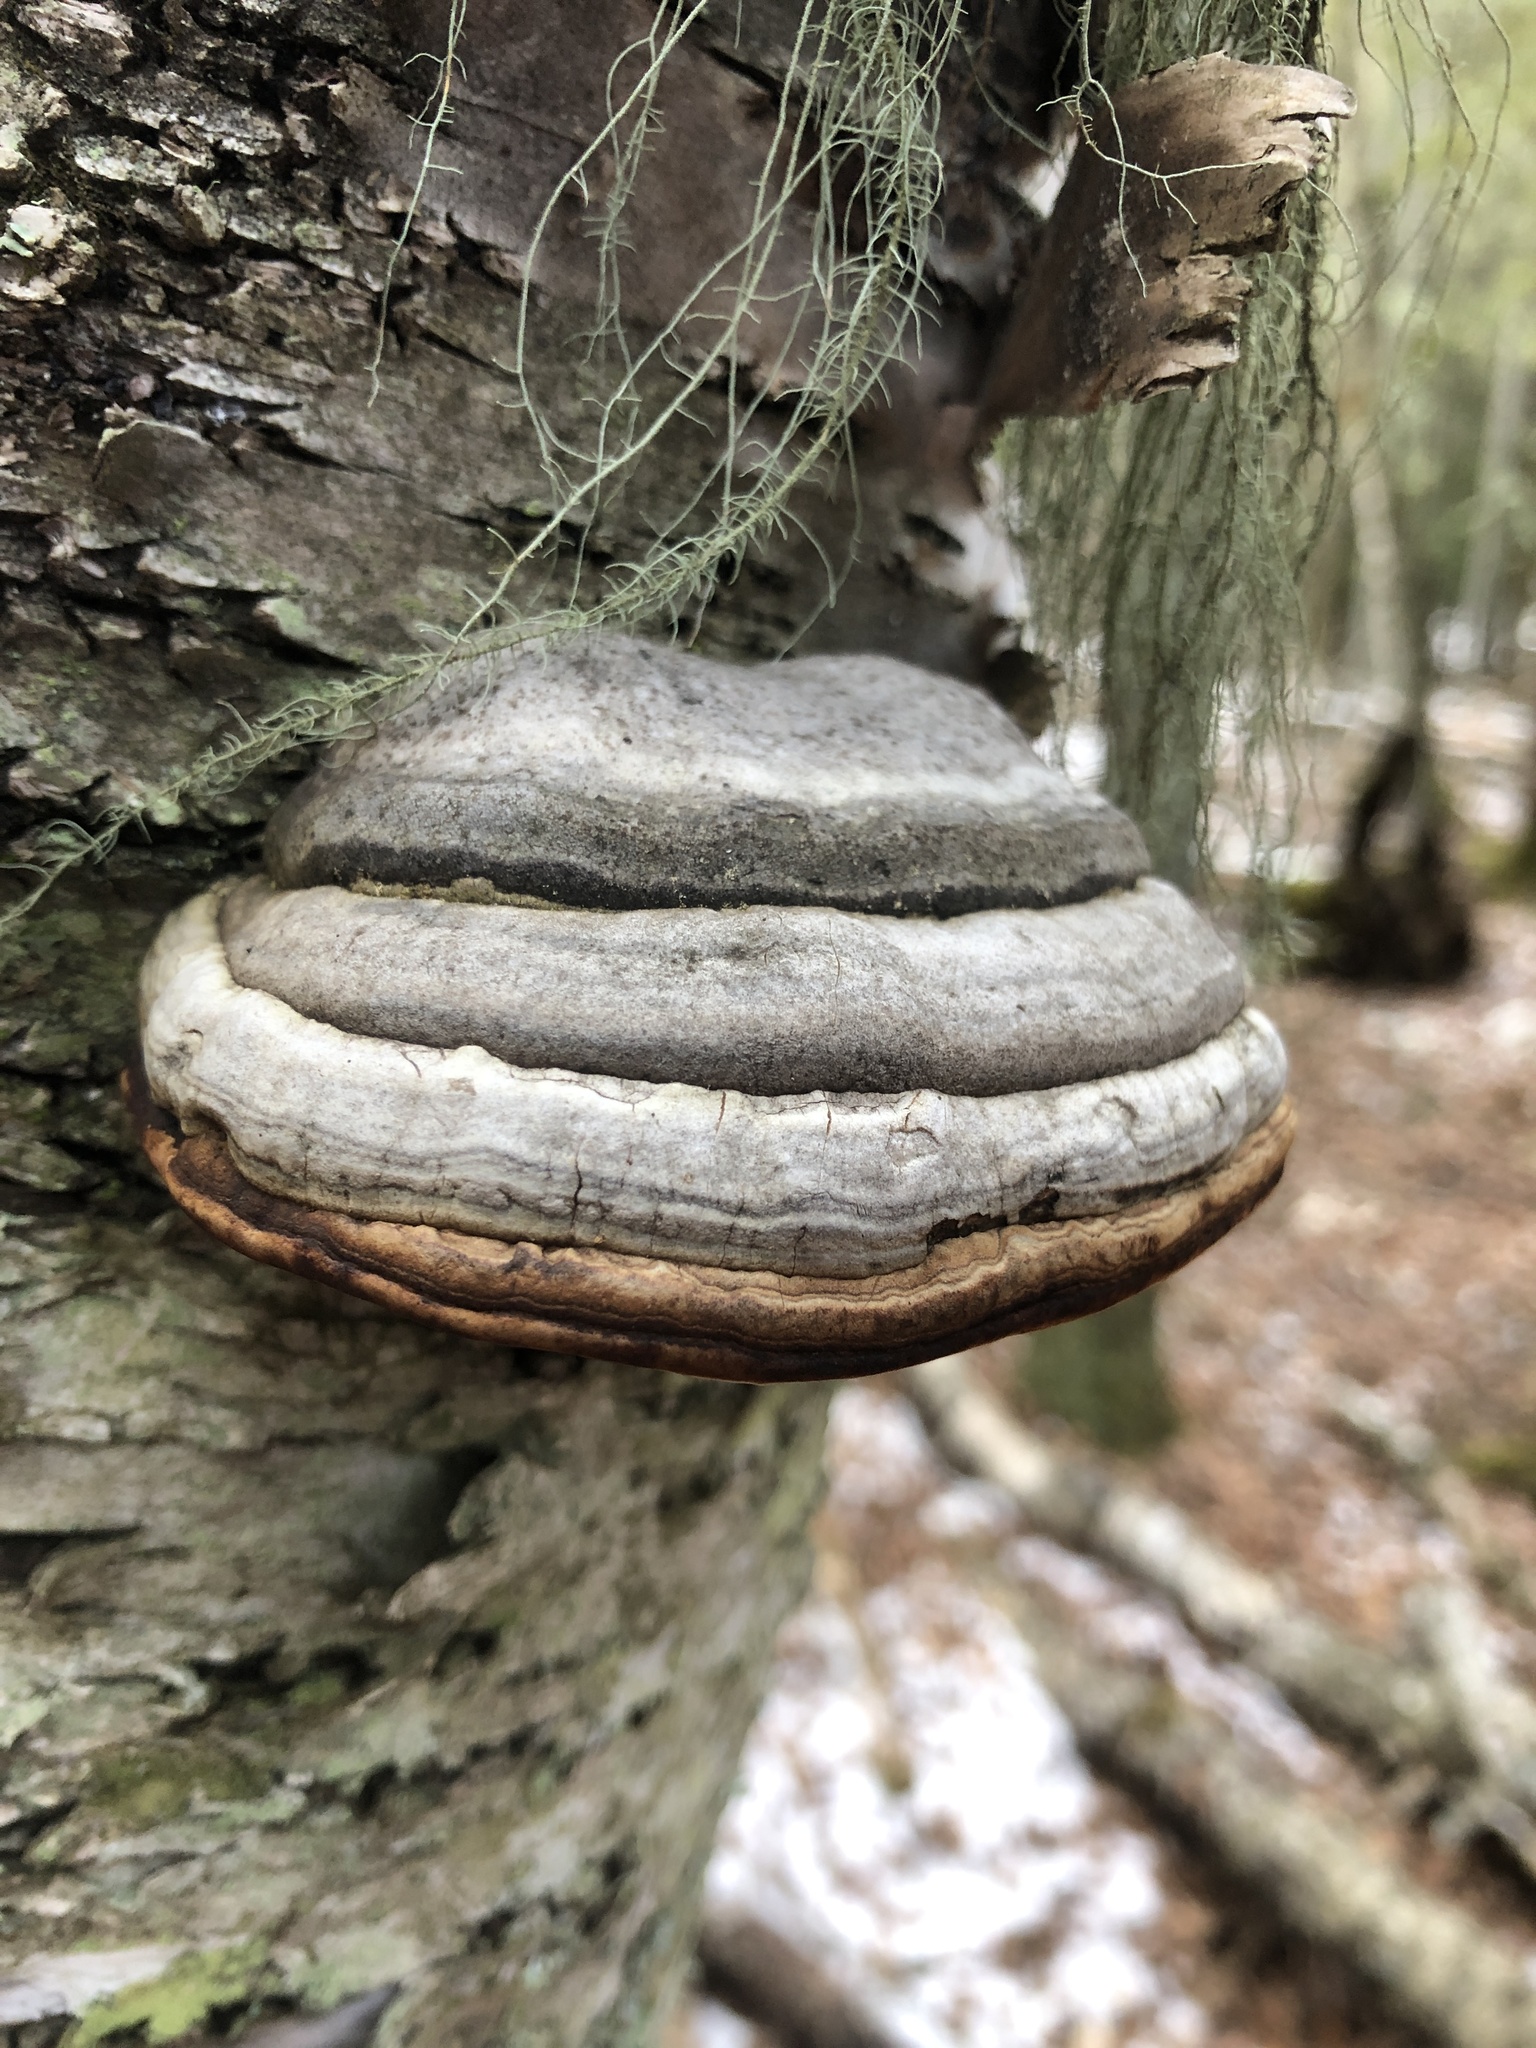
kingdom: Fungi
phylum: Basidiomycota
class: Agaricomycetes
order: Polyporales
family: Polyporaceae
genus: Fomes
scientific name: Fomes fomentarius
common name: Hoof fungus
